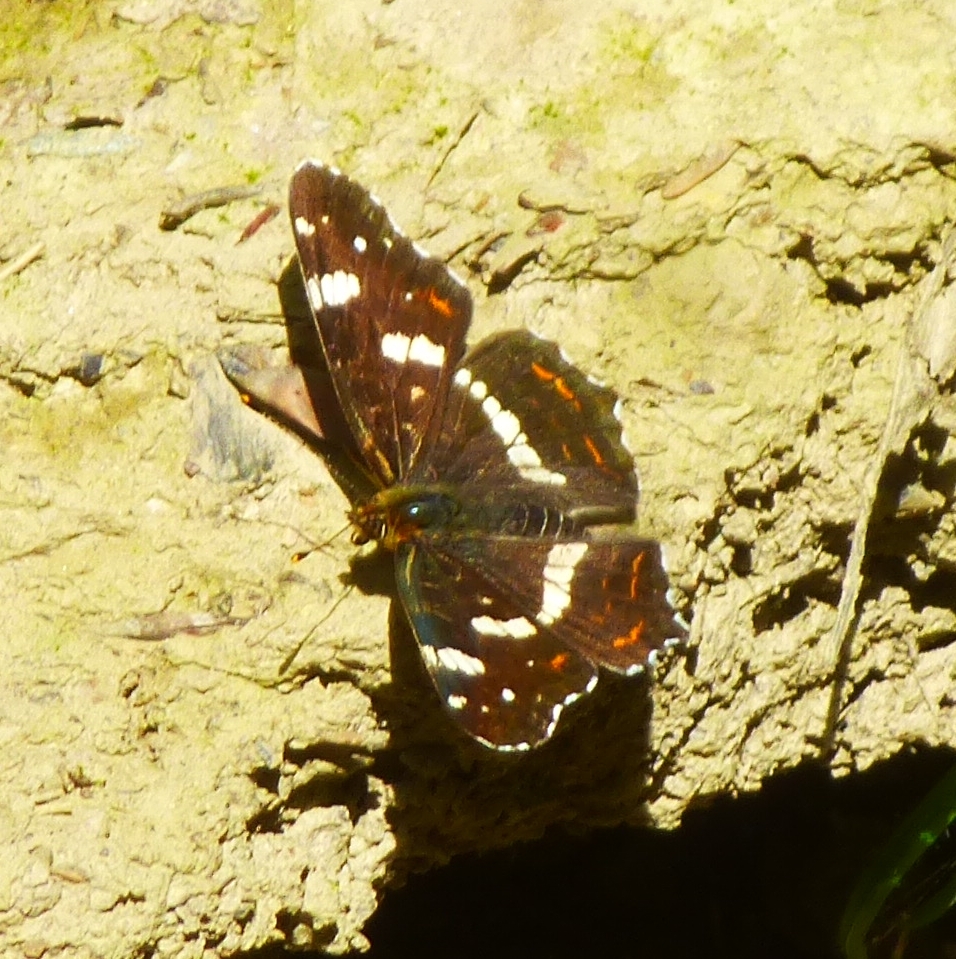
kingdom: Animalia
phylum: Arthropoda
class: Insecta
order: Lepidoptera
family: Nymphalidae
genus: Araschnia
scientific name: Araschnia levana
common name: Map butterfly
